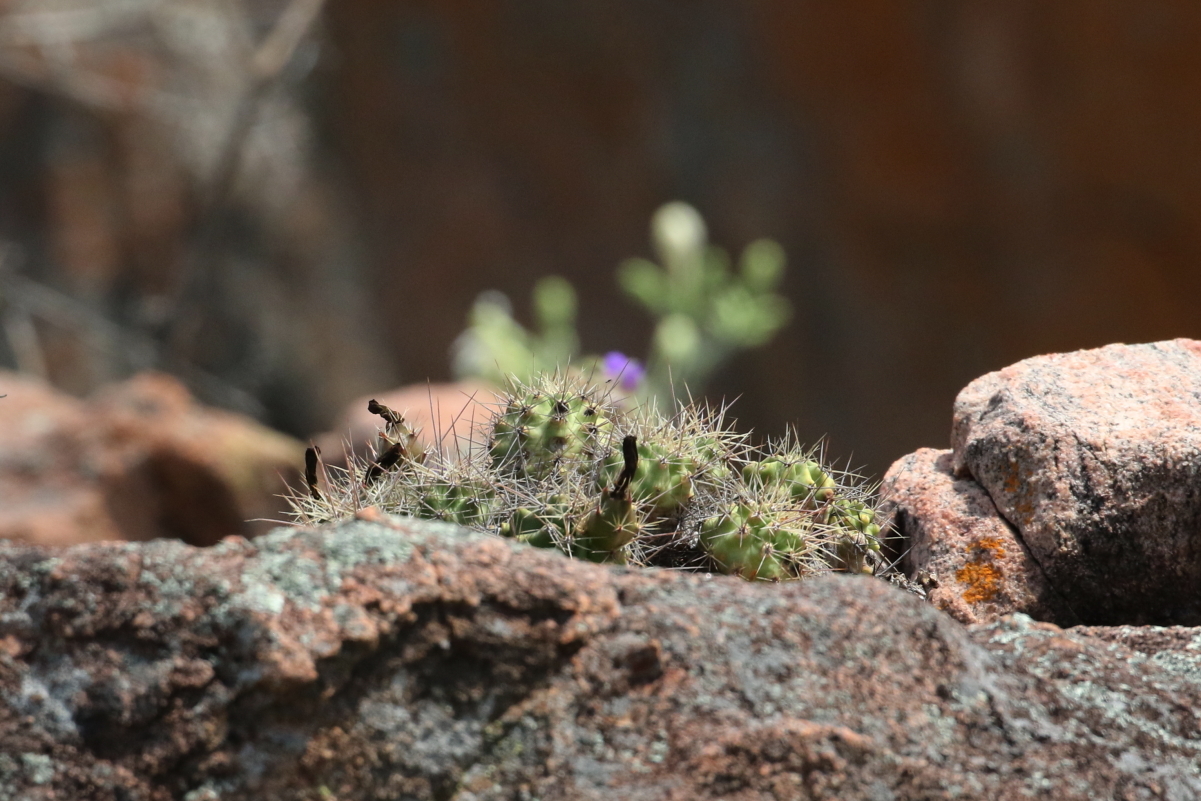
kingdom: Plantae
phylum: Tracheophyta
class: Magnoliopsida
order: Caryophyllales
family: Cactaceae
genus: Echinocereus
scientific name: Echinocereus coccineus
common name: Scarlet hedgehog cactus
